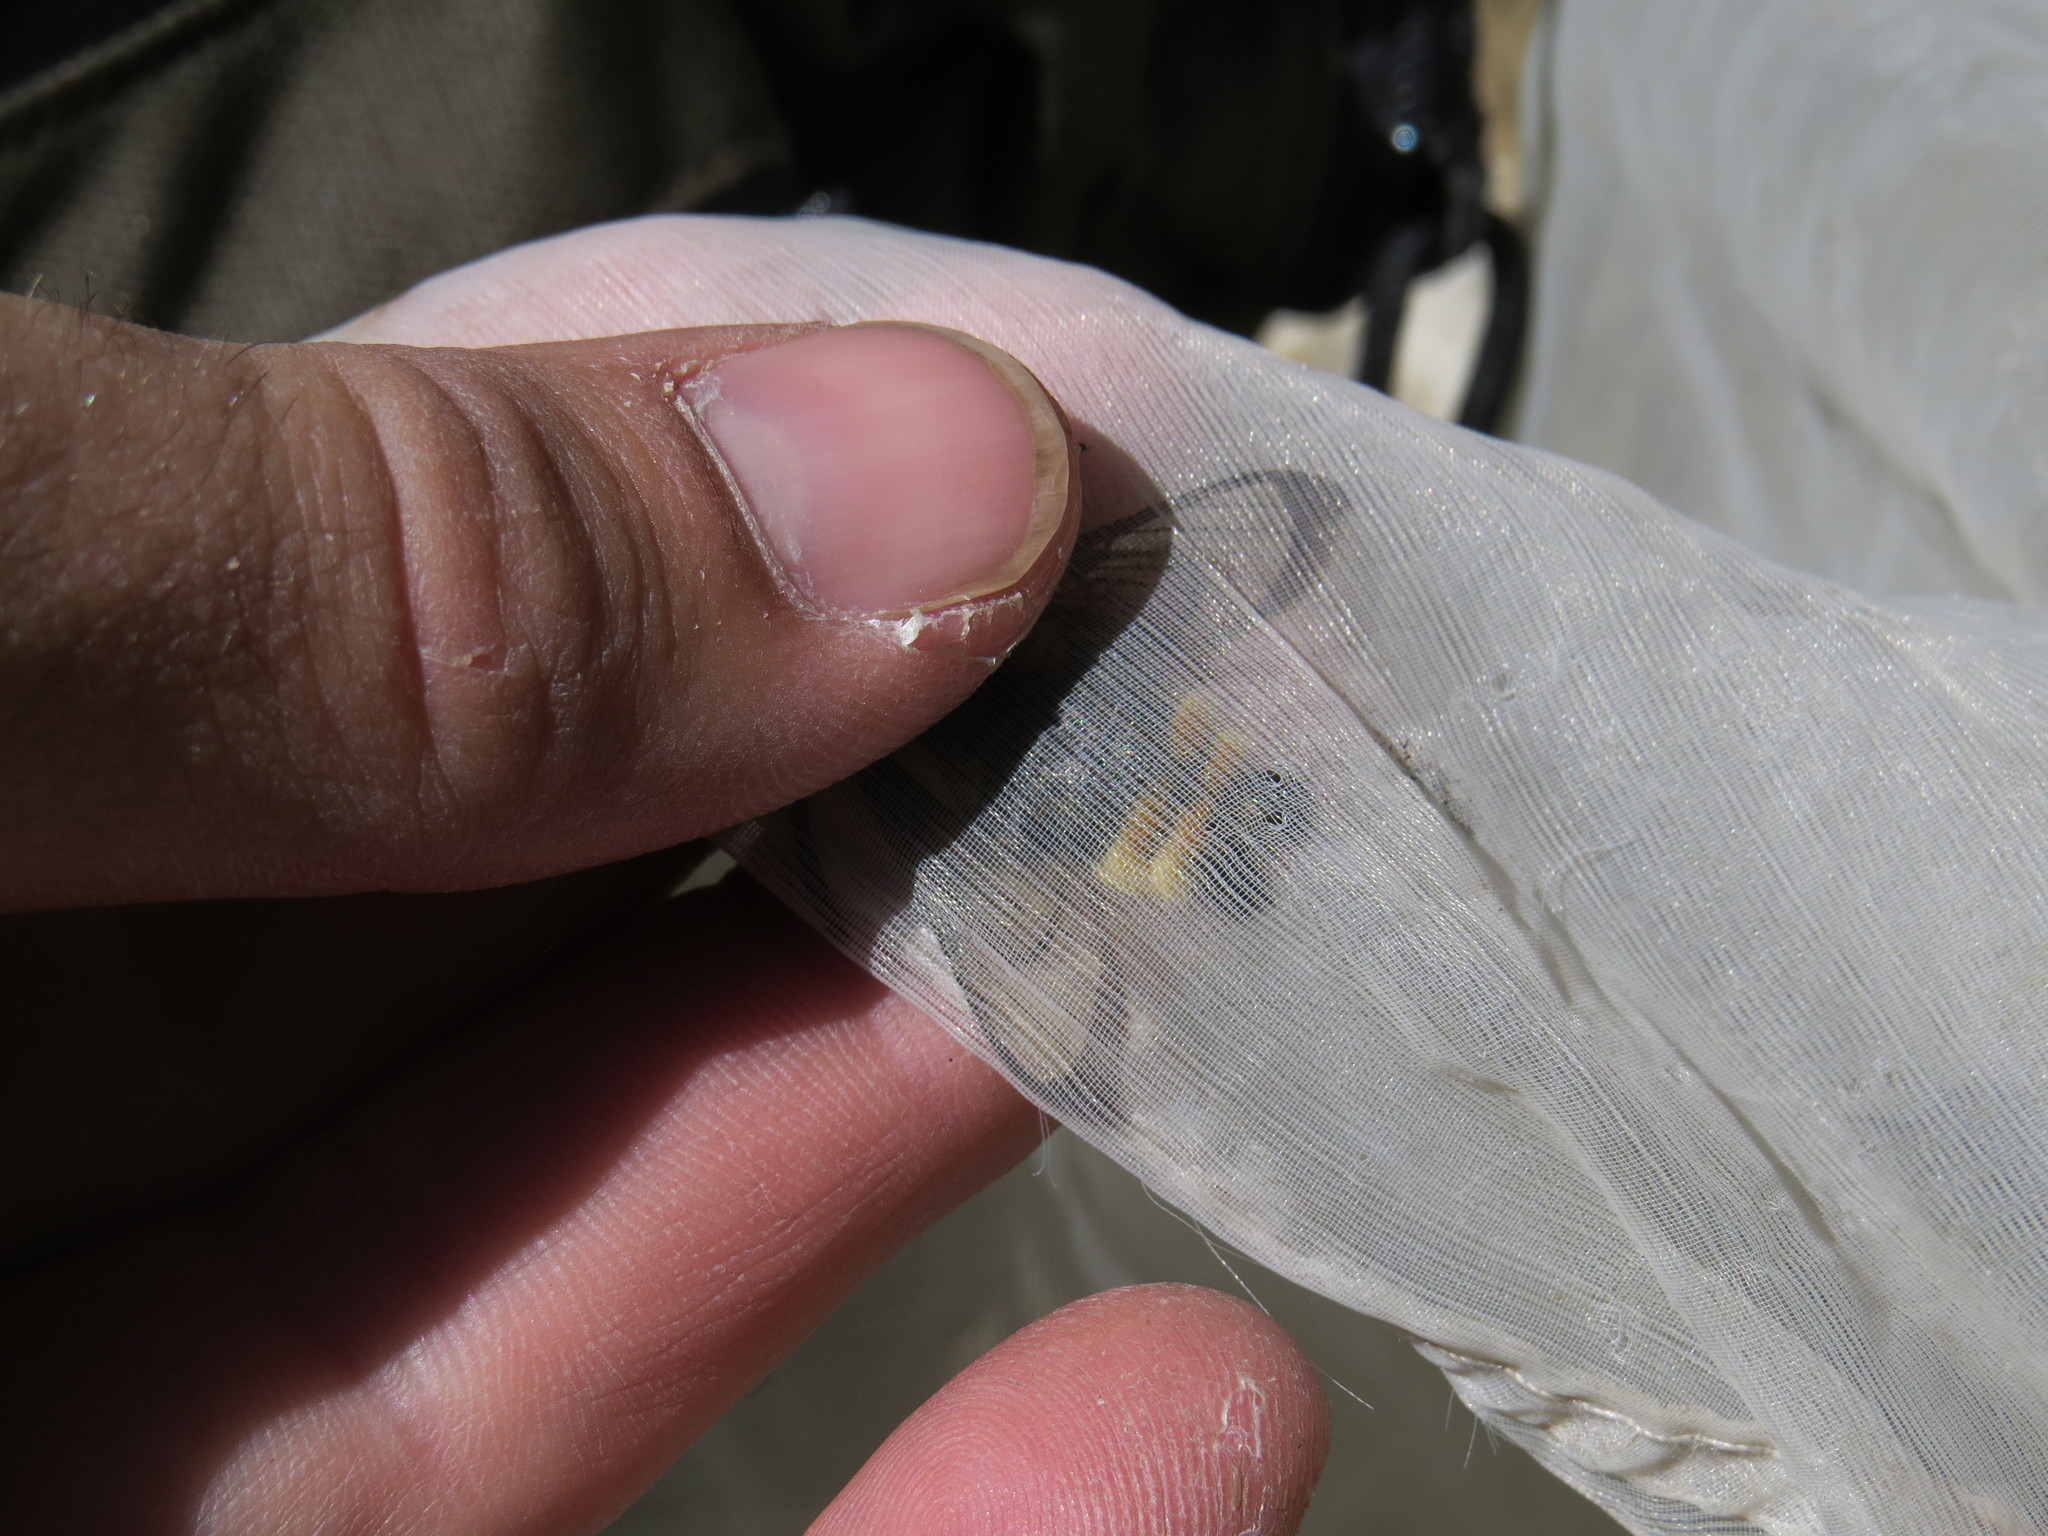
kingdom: Animalia
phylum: Arthropoda
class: Insecta
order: Lepidoptera
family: Sphingidae
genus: Hemaris
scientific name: Hemaris tityus
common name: Narrow-bordered bee hawk-moth
